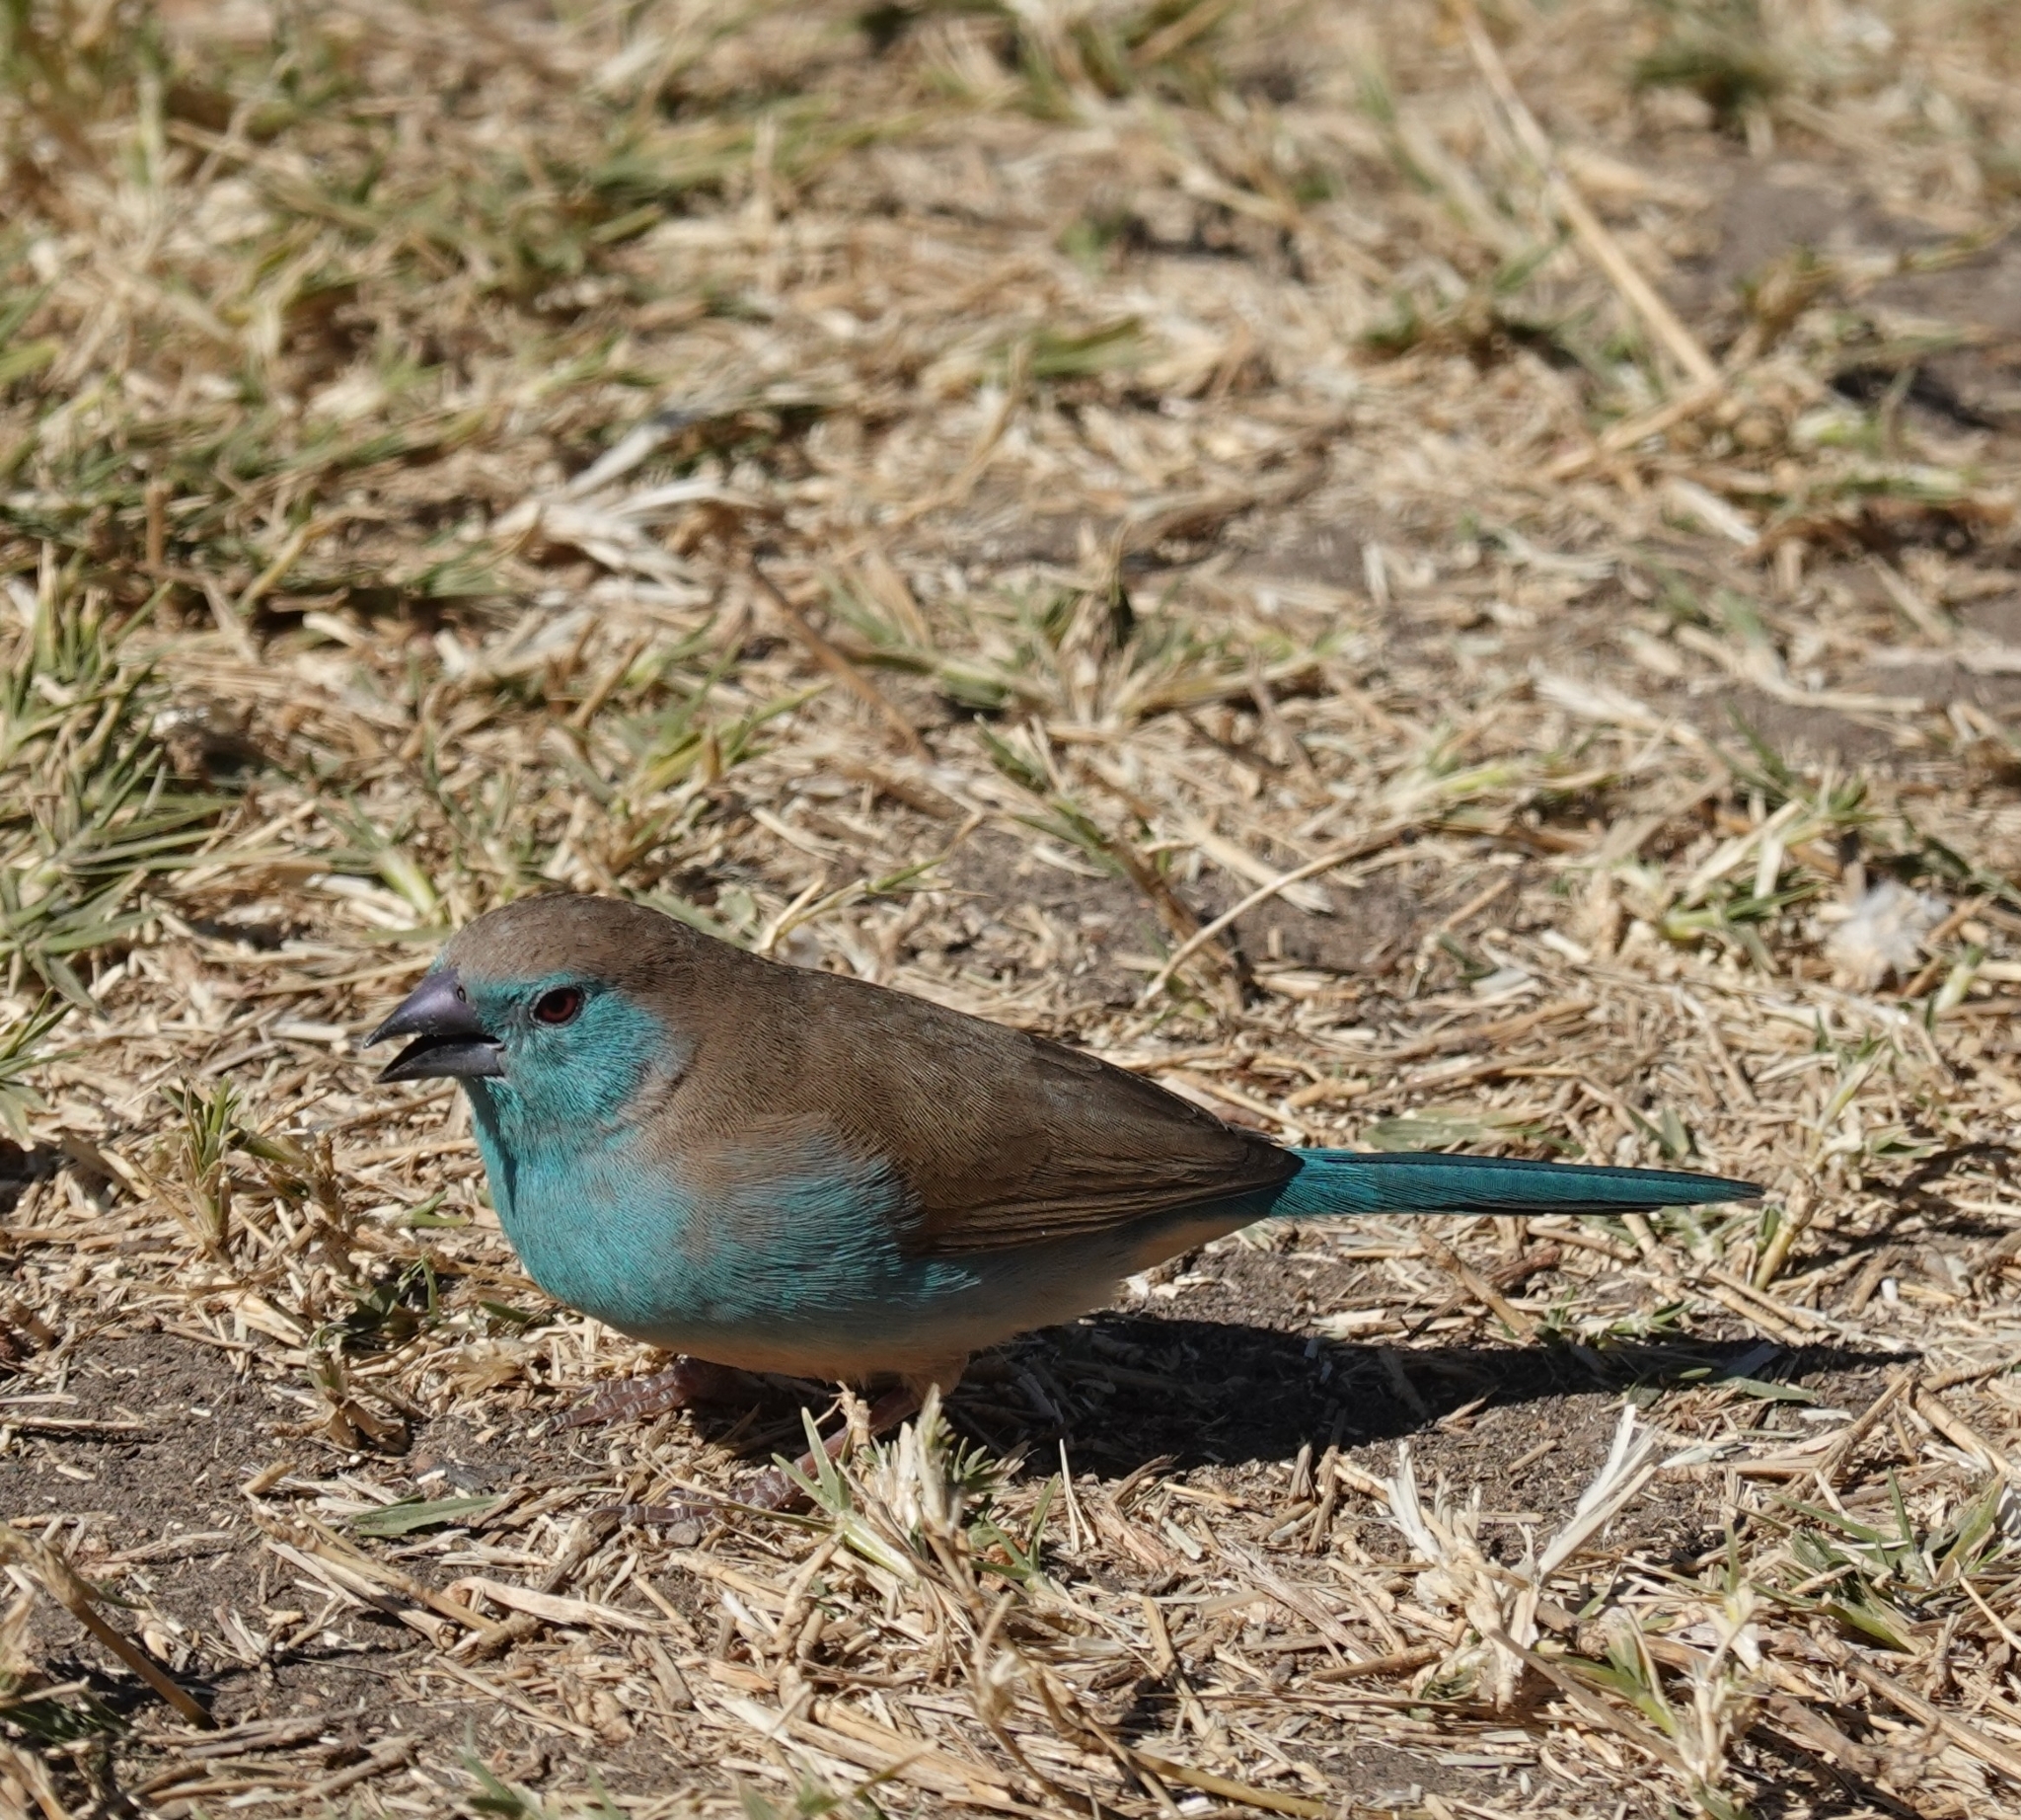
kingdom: Animalia
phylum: Chordata
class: Aves
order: Passeriformes
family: Estrildidae
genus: Uraeginthus
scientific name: Uraeginthus angolensis
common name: Blue waxbill
